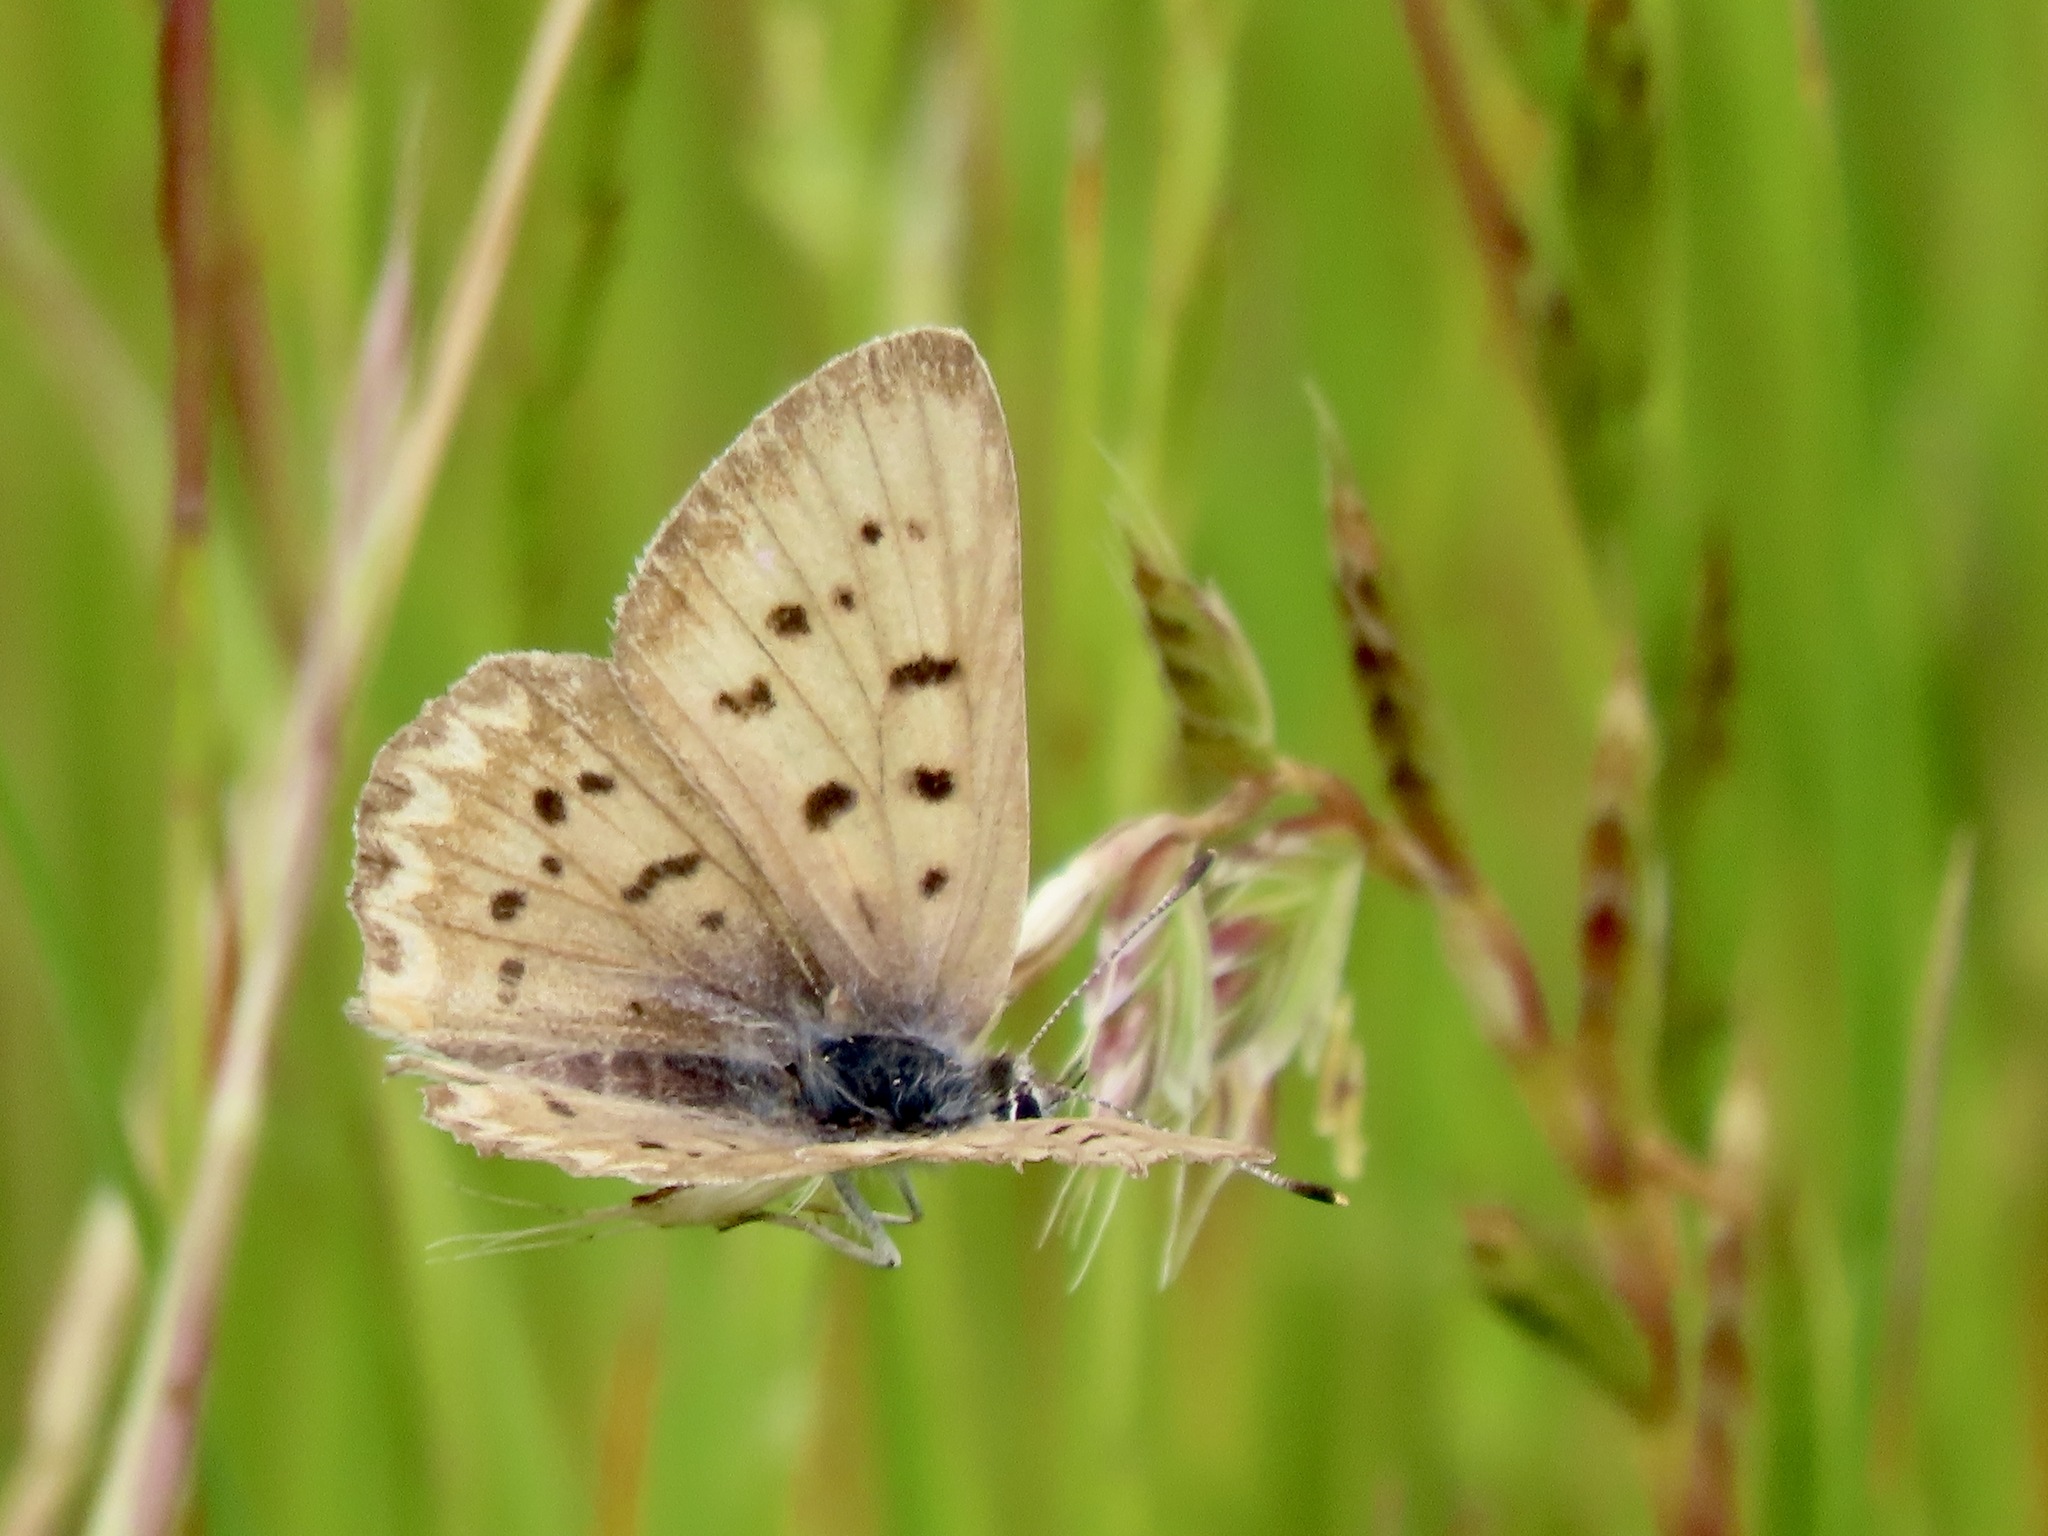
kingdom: Animalia
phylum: Arthropoda
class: Insecta
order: Lepidoptera
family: Lycaenidae
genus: Tharsalea
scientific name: Tharsalea helloides
